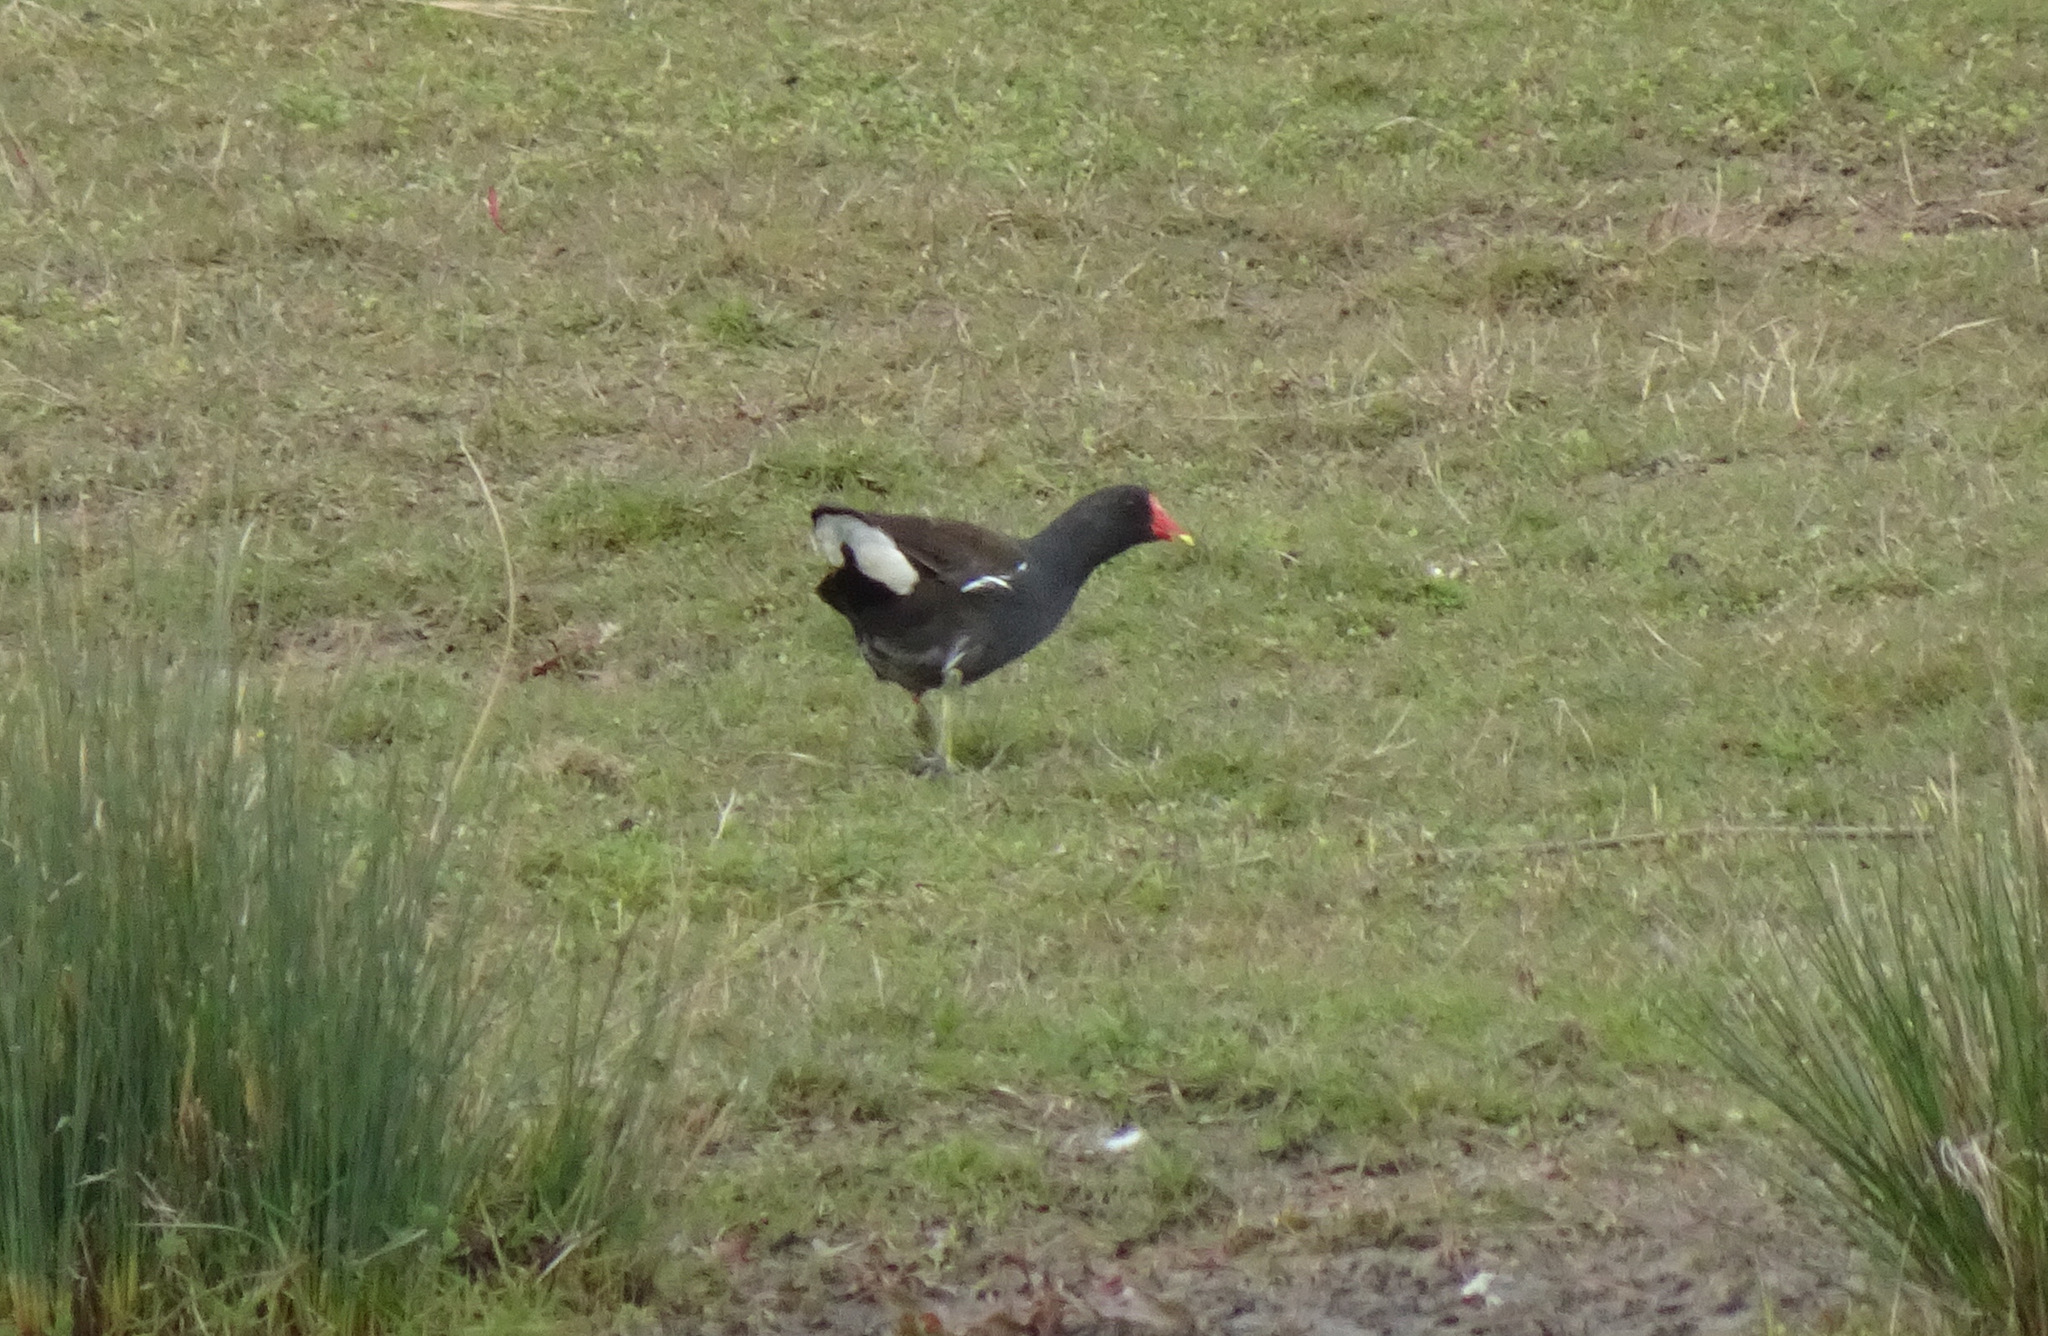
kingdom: Animalia
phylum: Chordata
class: Aves
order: Gruiformes
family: Rallidae
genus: Gallinula
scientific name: Gallinula chloropus
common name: Common moorhen
